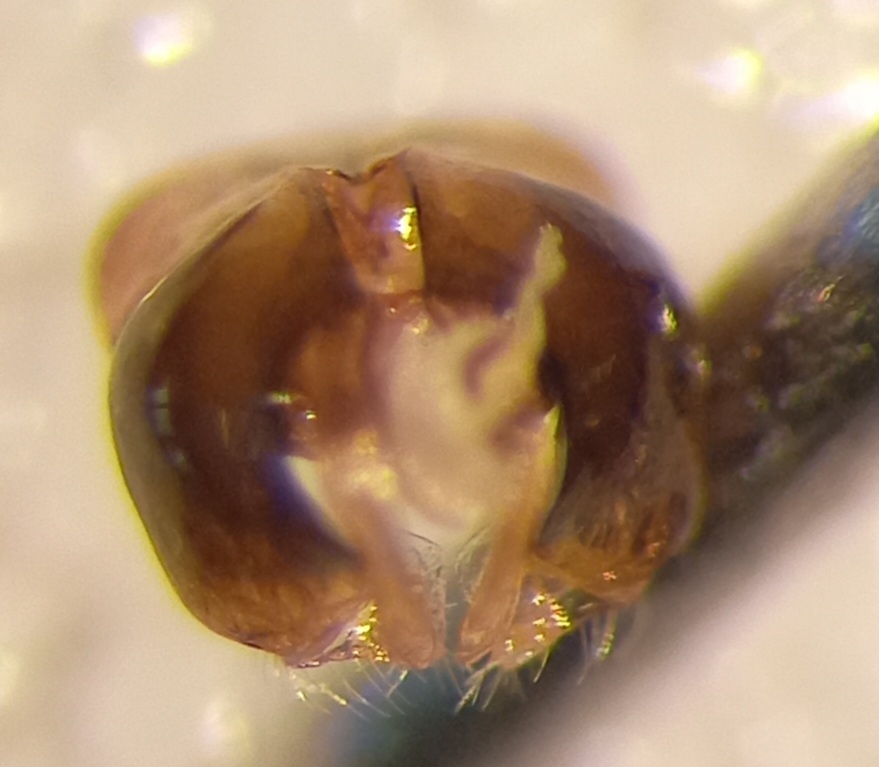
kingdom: Animalia
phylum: Arthropoda
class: Insecta
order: Hymenoptera
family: Halictidae
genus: Lasioglossum
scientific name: Lasioglossum subhirtum
